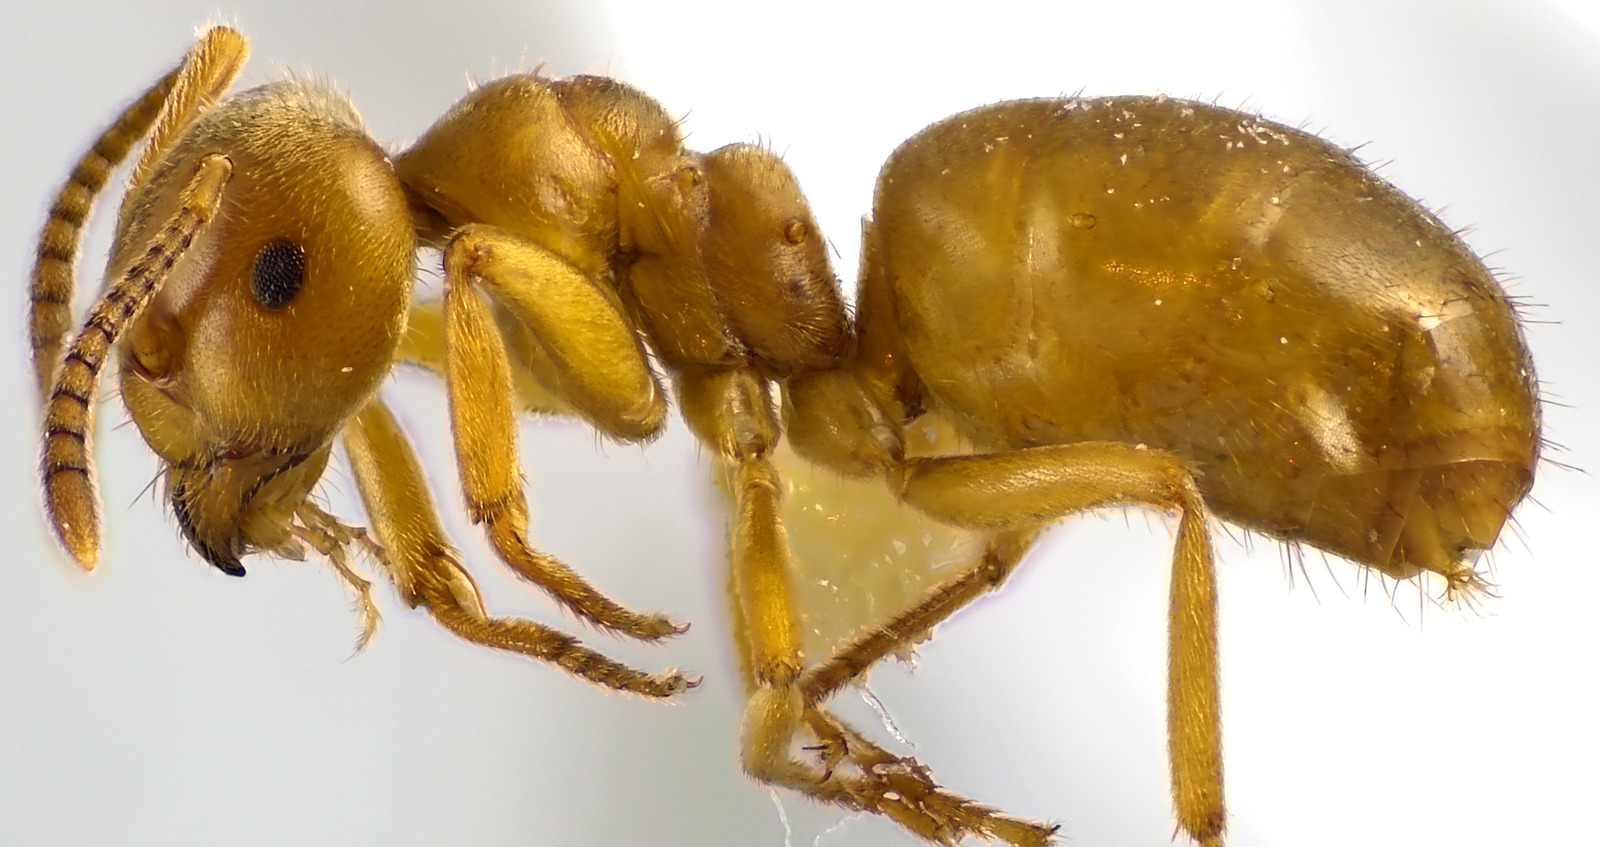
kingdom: Animalia
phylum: Arthropoda
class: Insecta
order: Hymenoptera
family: Formicidae
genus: Lasius
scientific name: Lasius aphidicola
